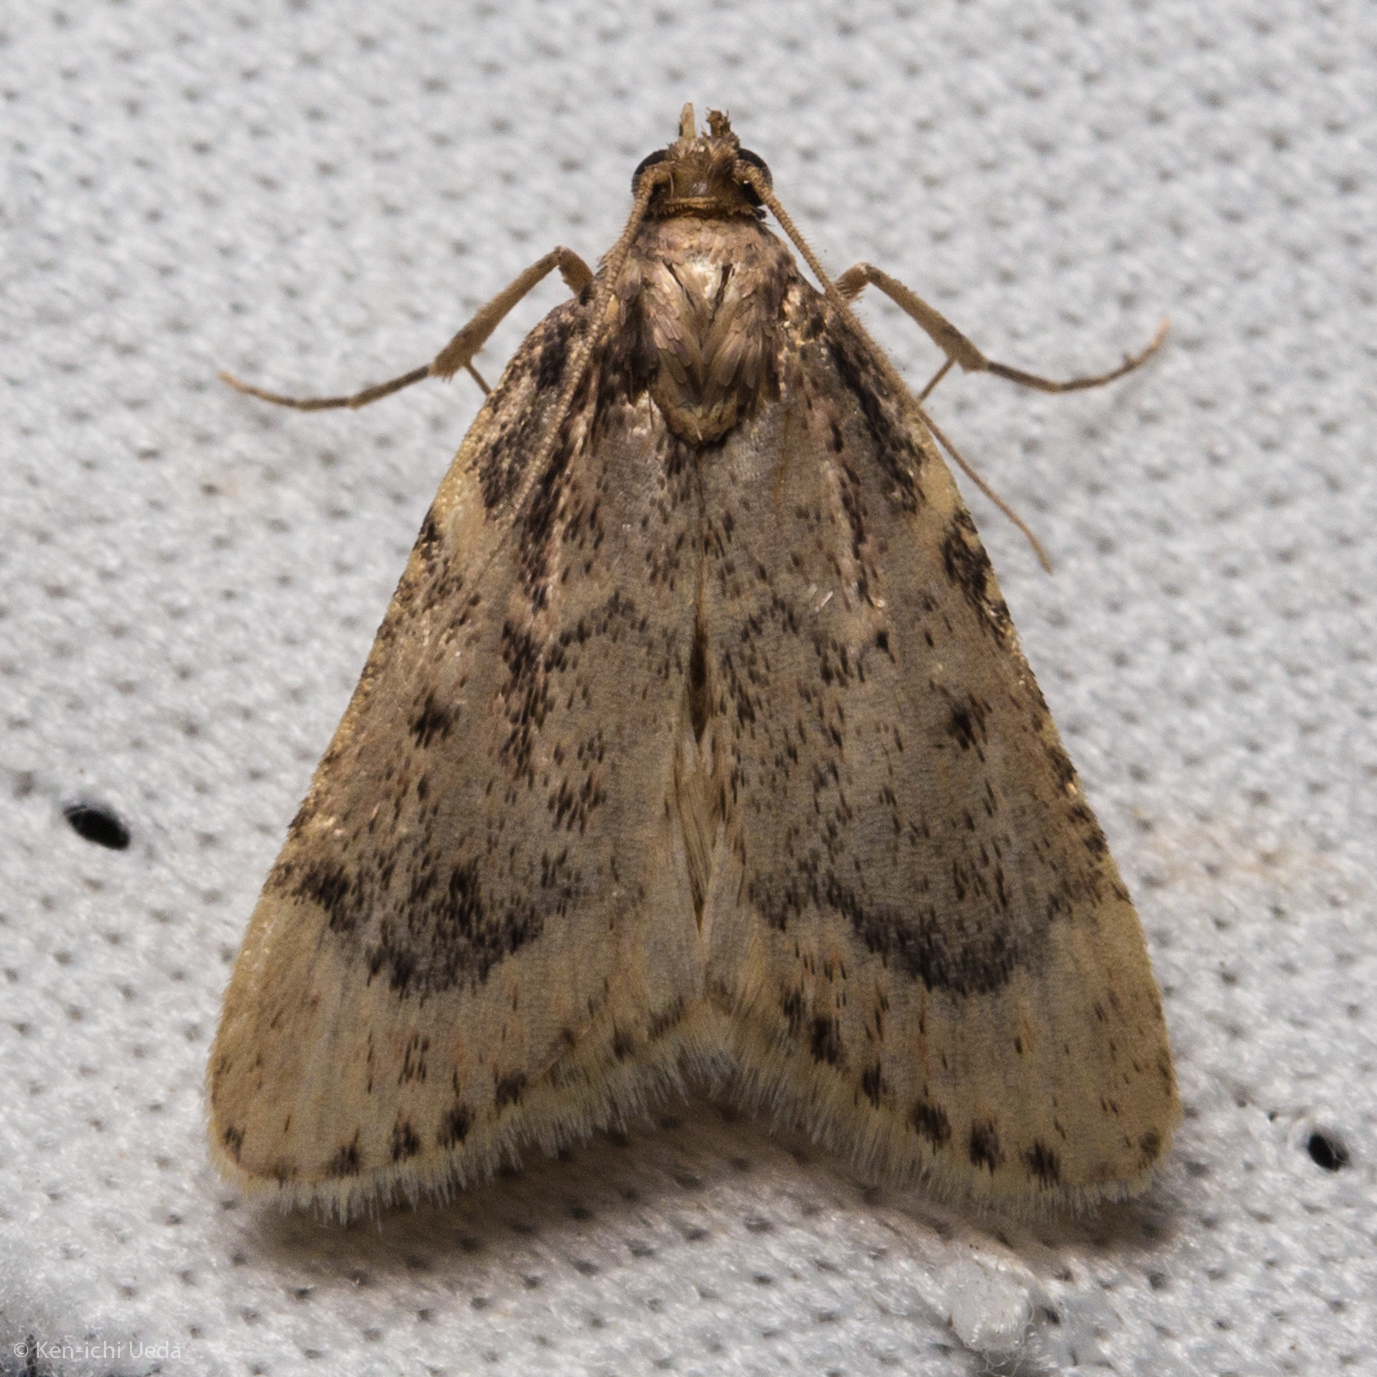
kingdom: Animalia
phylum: Arthropoda
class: Insecta
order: Lepidoptera
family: Crambidae
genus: Achyra
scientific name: Achyra occidentalis
